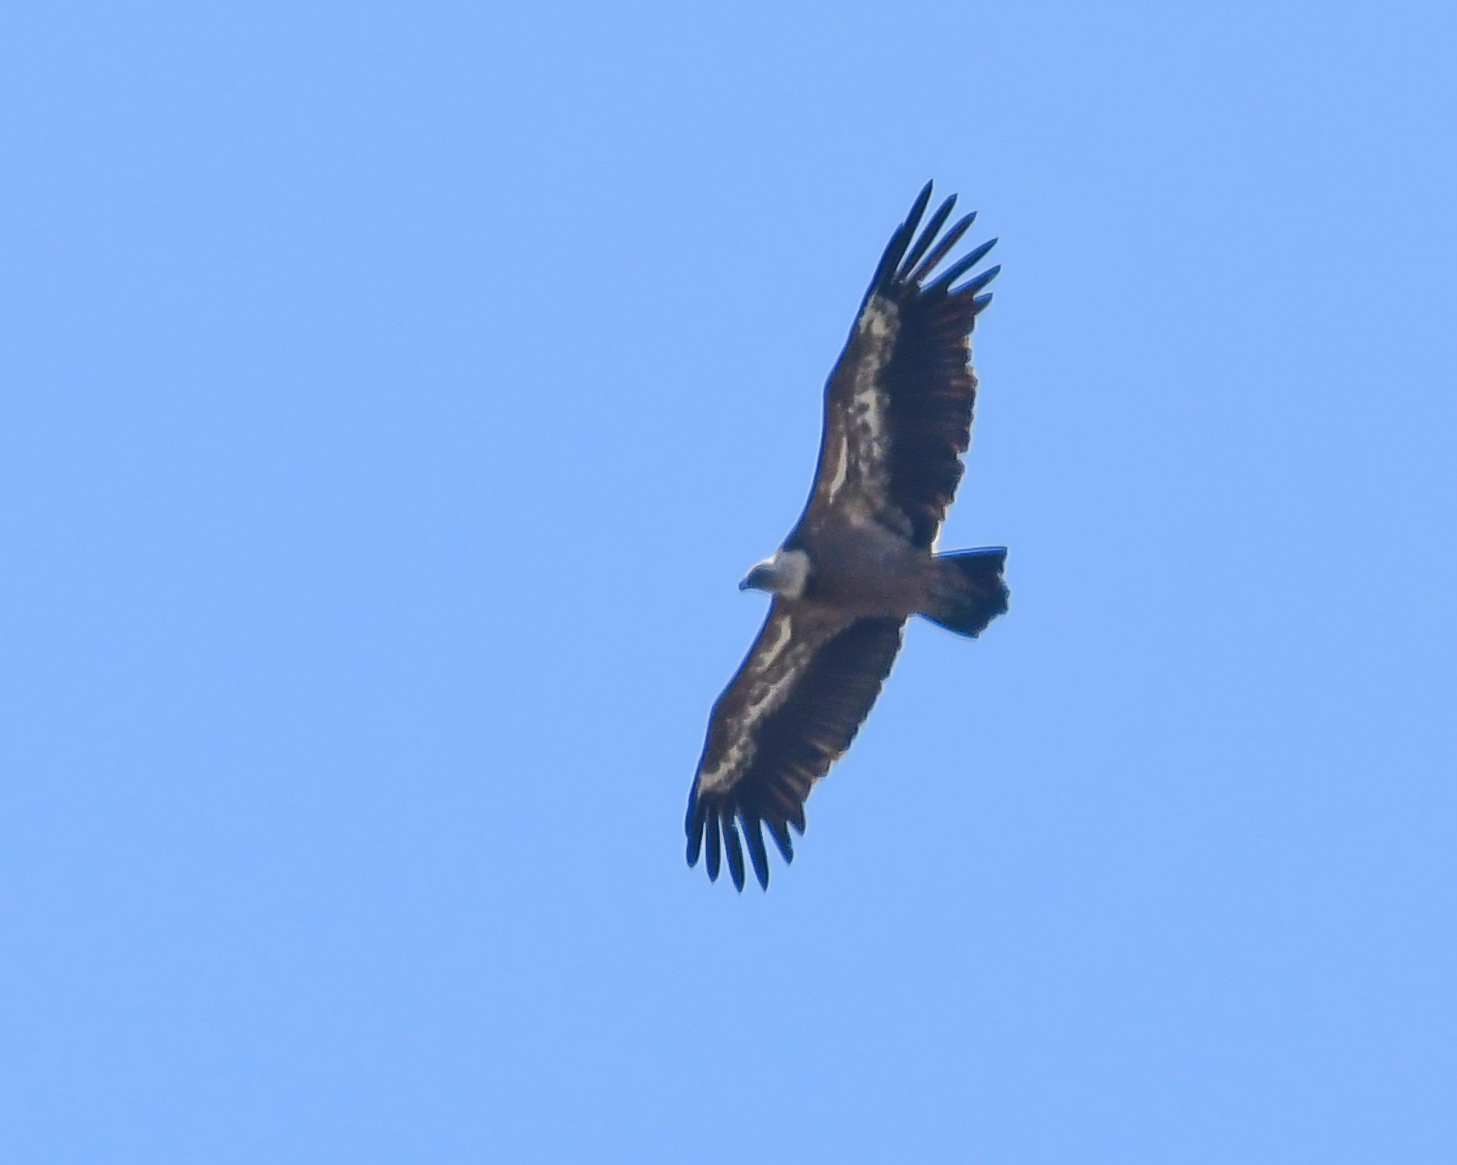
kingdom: Animalia
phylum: Chordata
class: Aves
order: Accipitriformes
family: Accipitridae
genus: Gyps
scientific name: Gyps fulvus
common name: Griffon vulture
